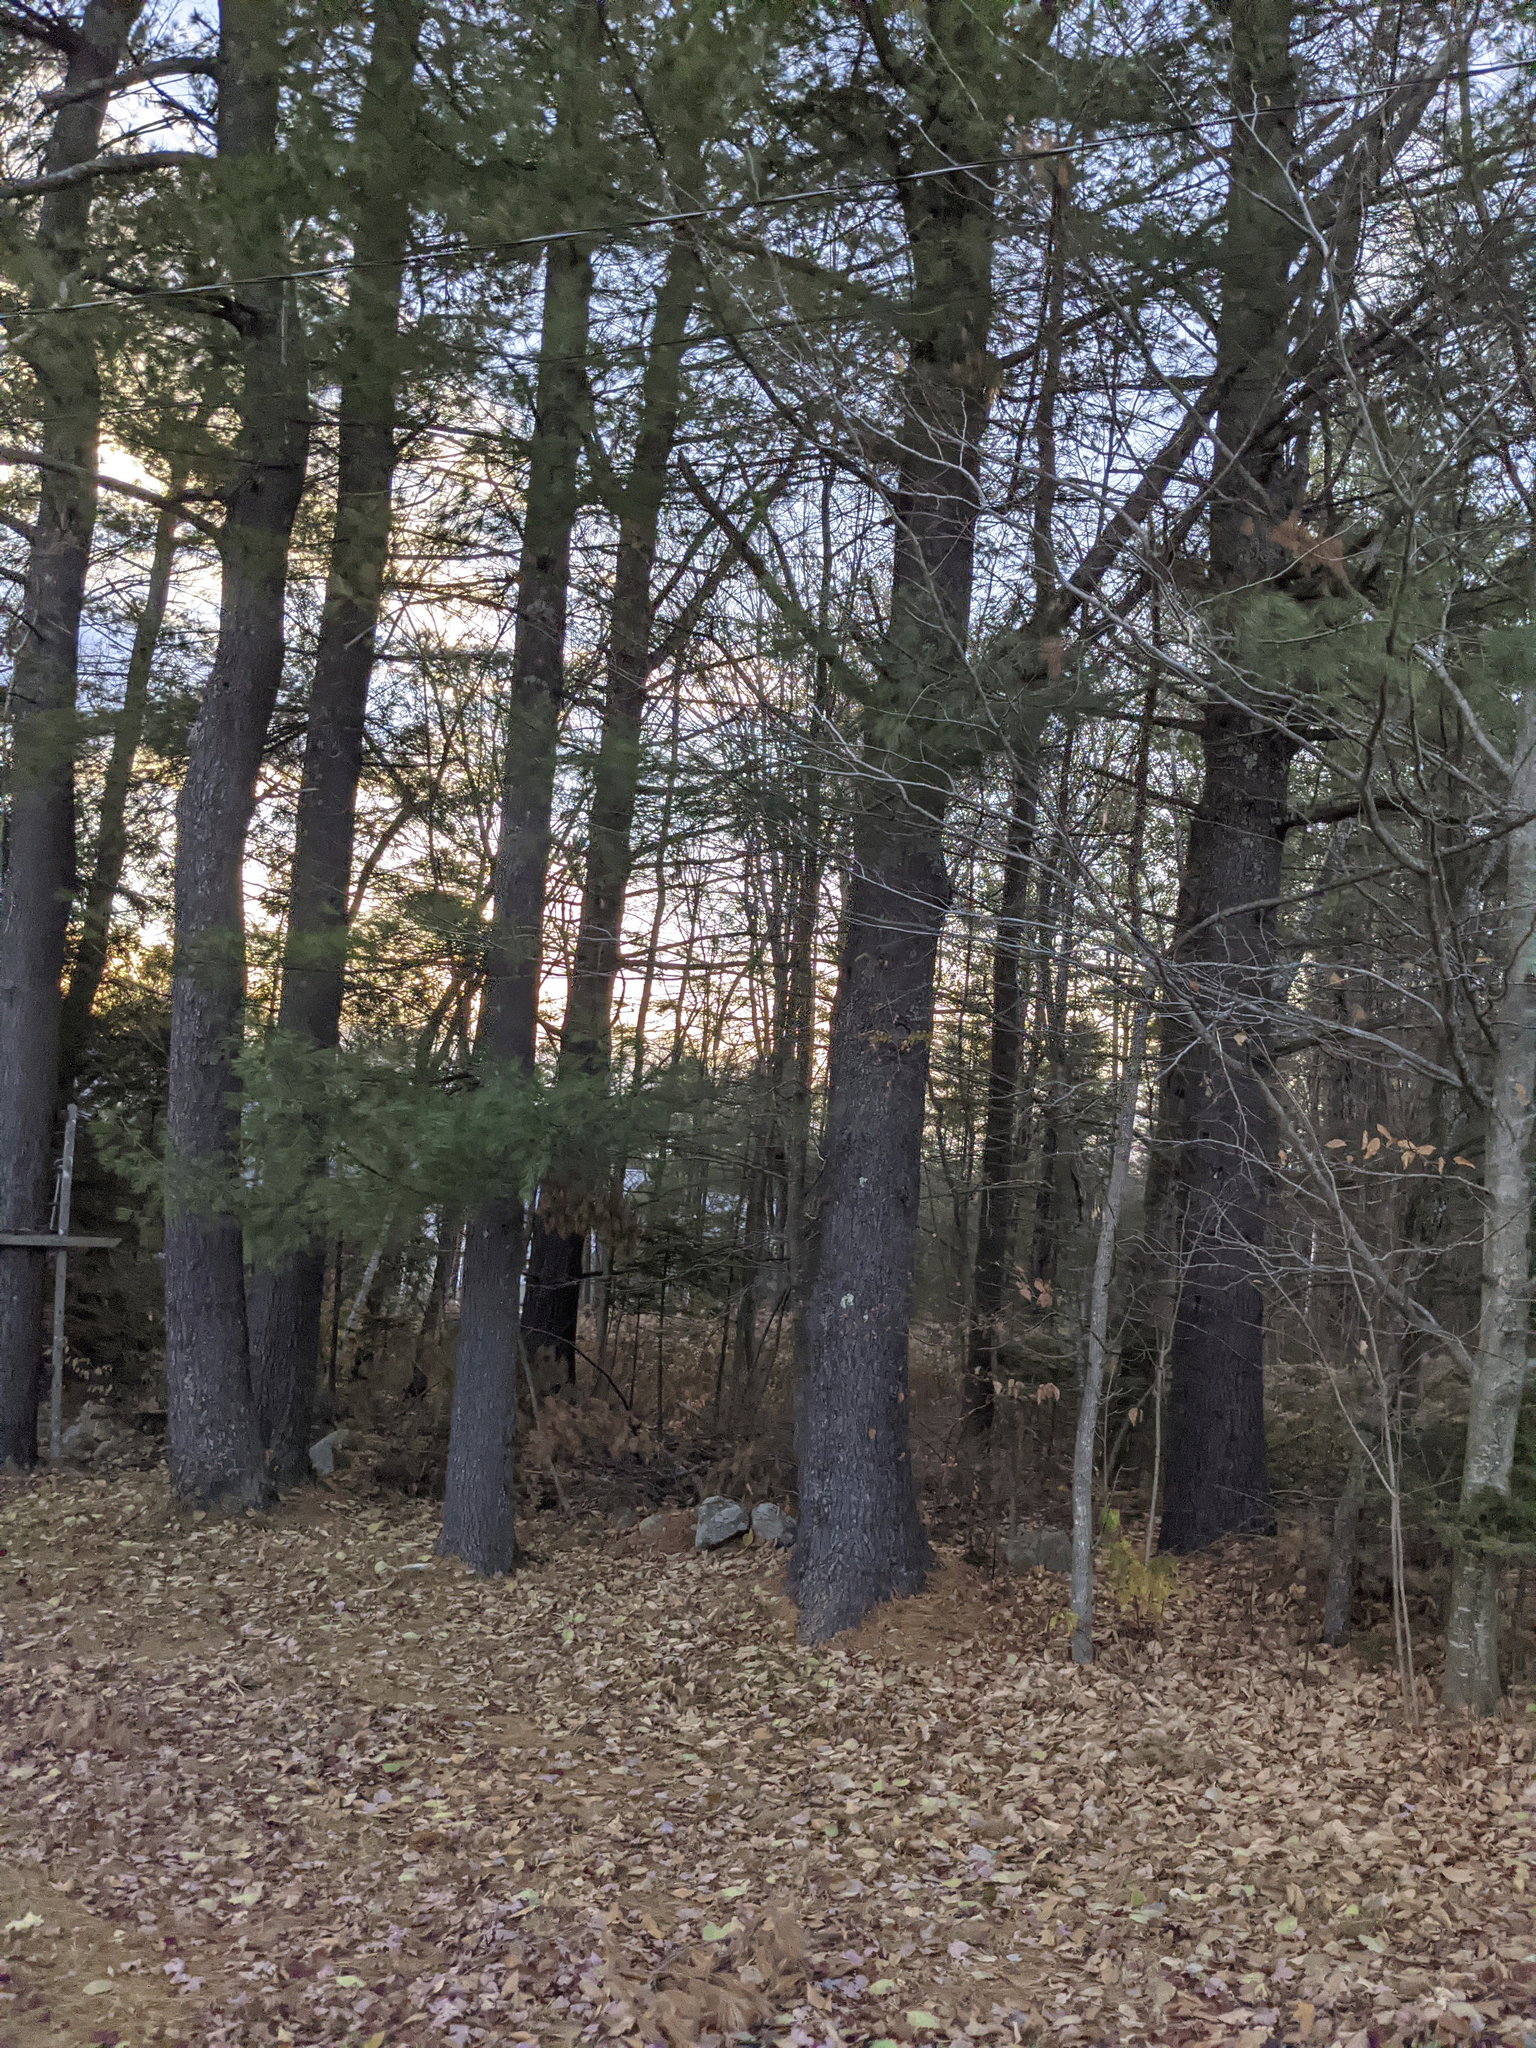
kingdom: Plantae
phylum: Tracheophyta
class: Pinopsida
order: Pinales
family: Pinaceae
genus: Pinus
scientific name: Pinus strobus
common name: Weymouth pine
